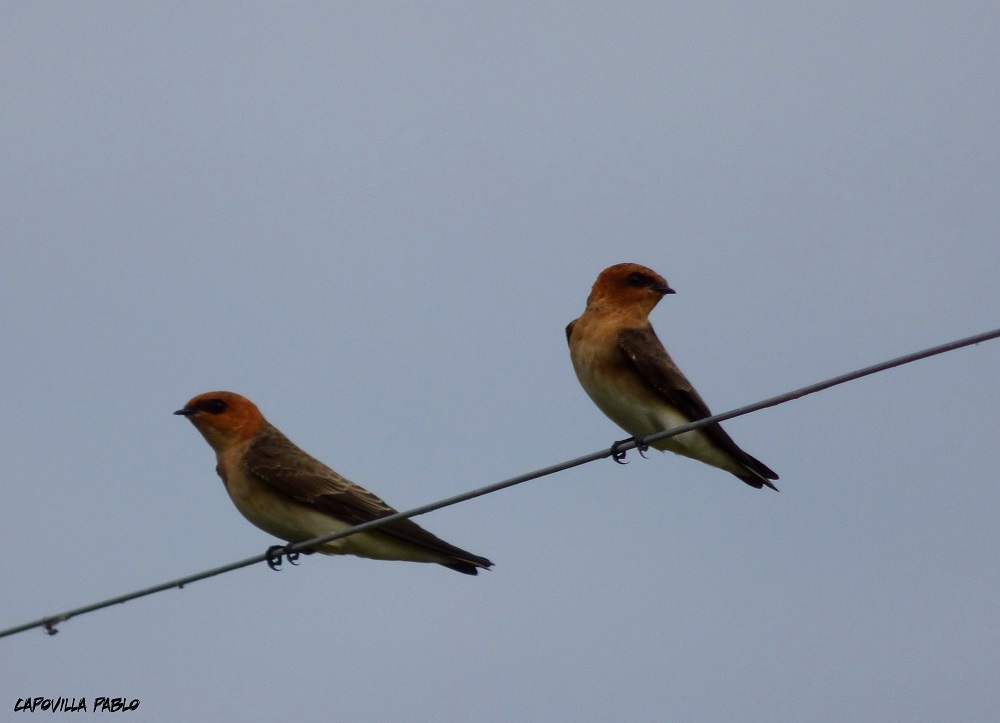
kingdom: Animalia
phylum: Chordata
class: Aves
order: Passeriformes
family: Hirundinidae
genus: Alopochelidon
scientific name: Alopochelidon fucata
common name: Tawny-headed swallow
